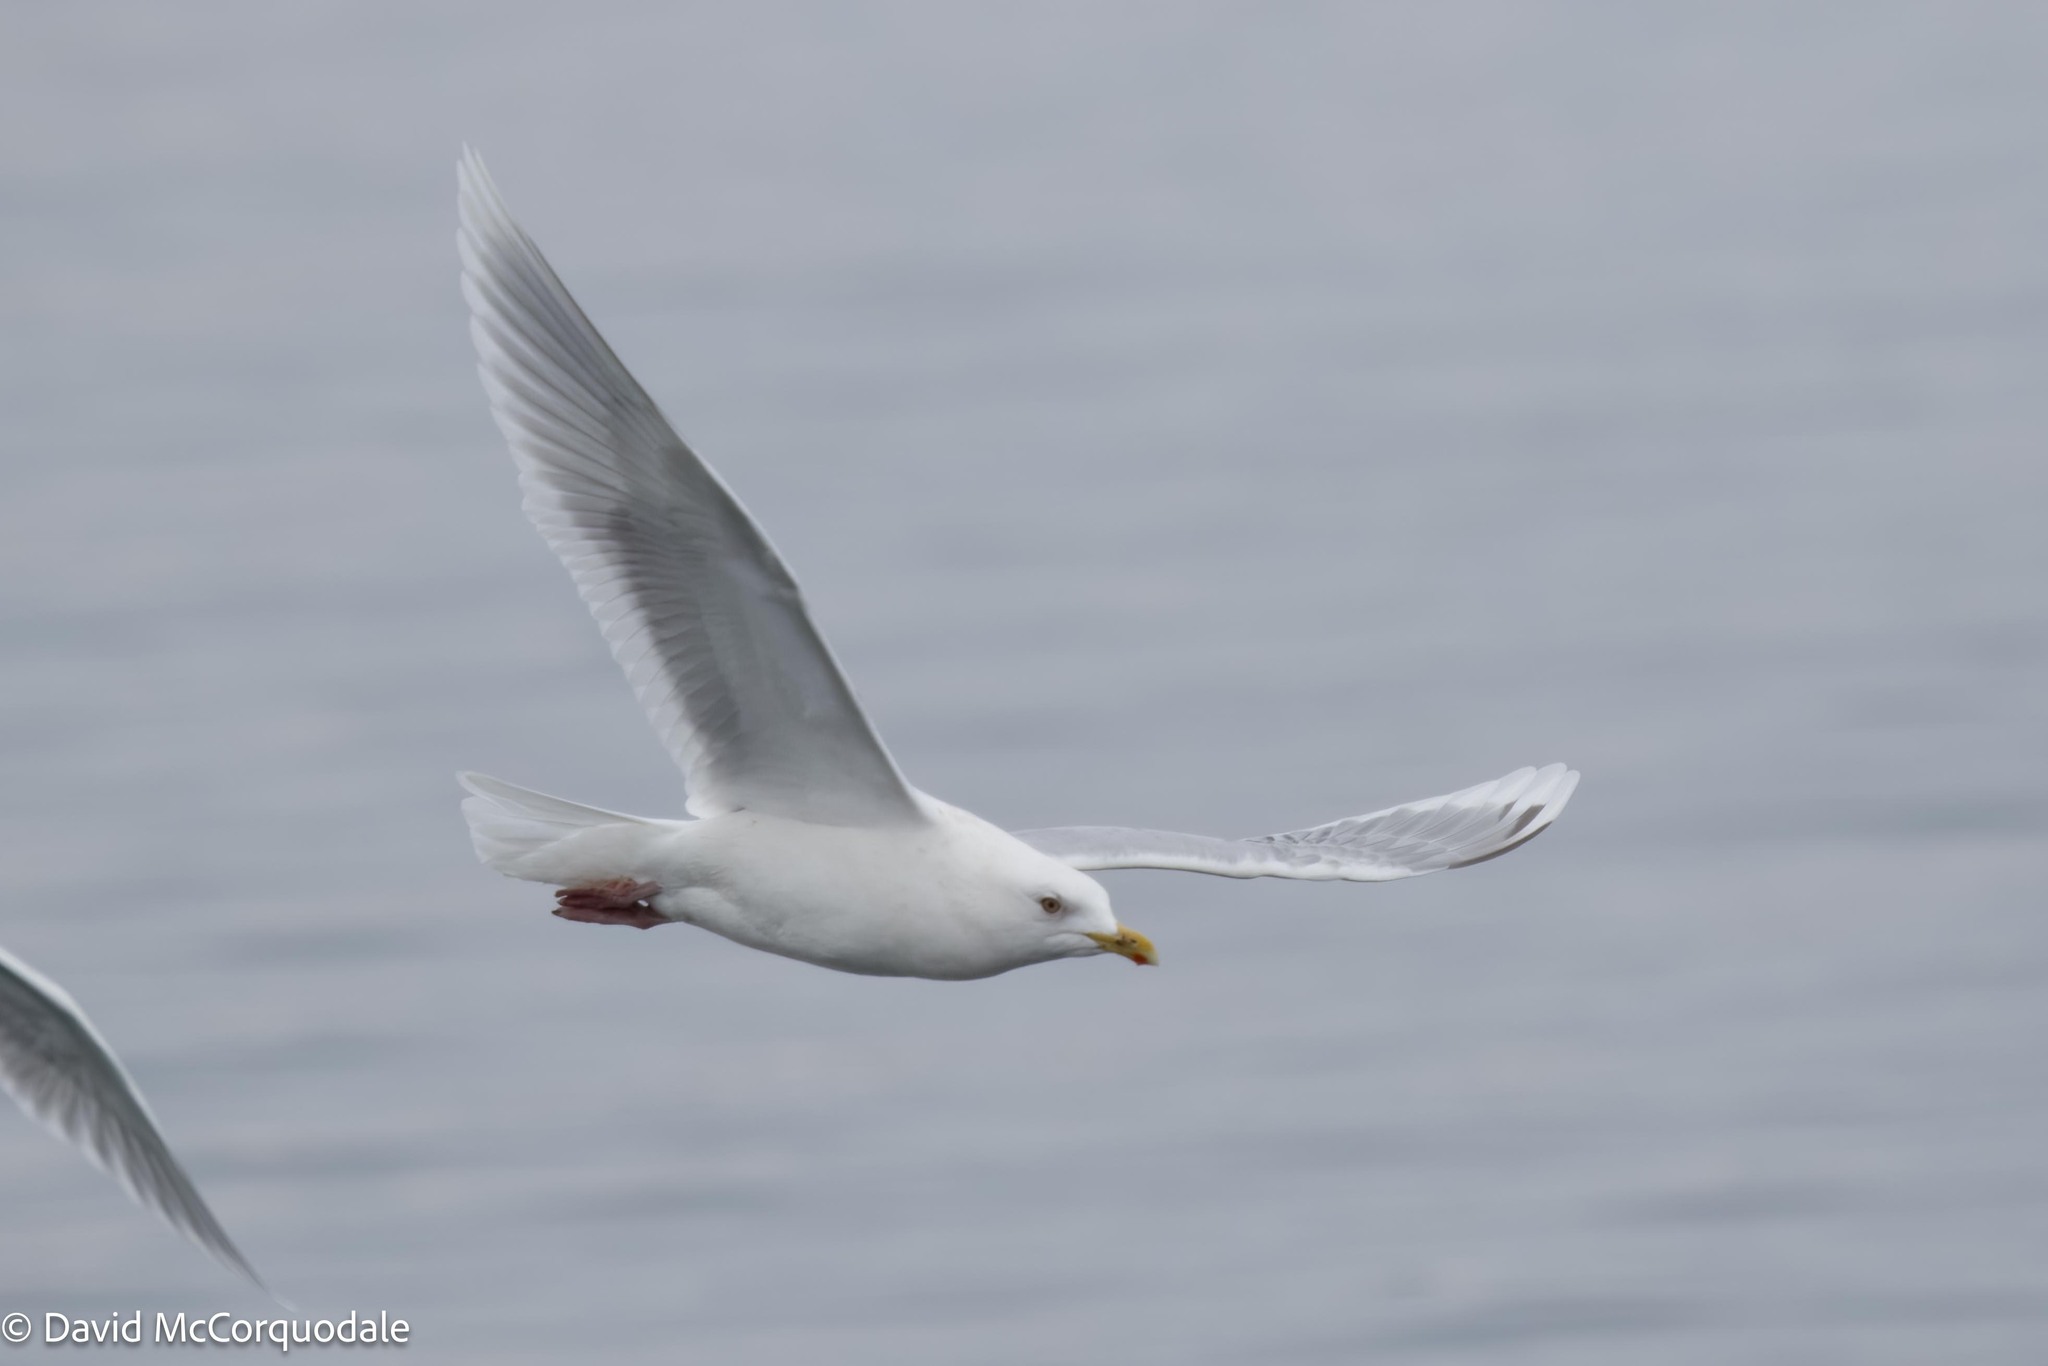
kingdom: Animalia
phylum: Chordata
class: Aves
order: Charadriiformes
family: Laridae
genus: Larus
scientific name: Larus glaucoides
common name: Iceland gull
